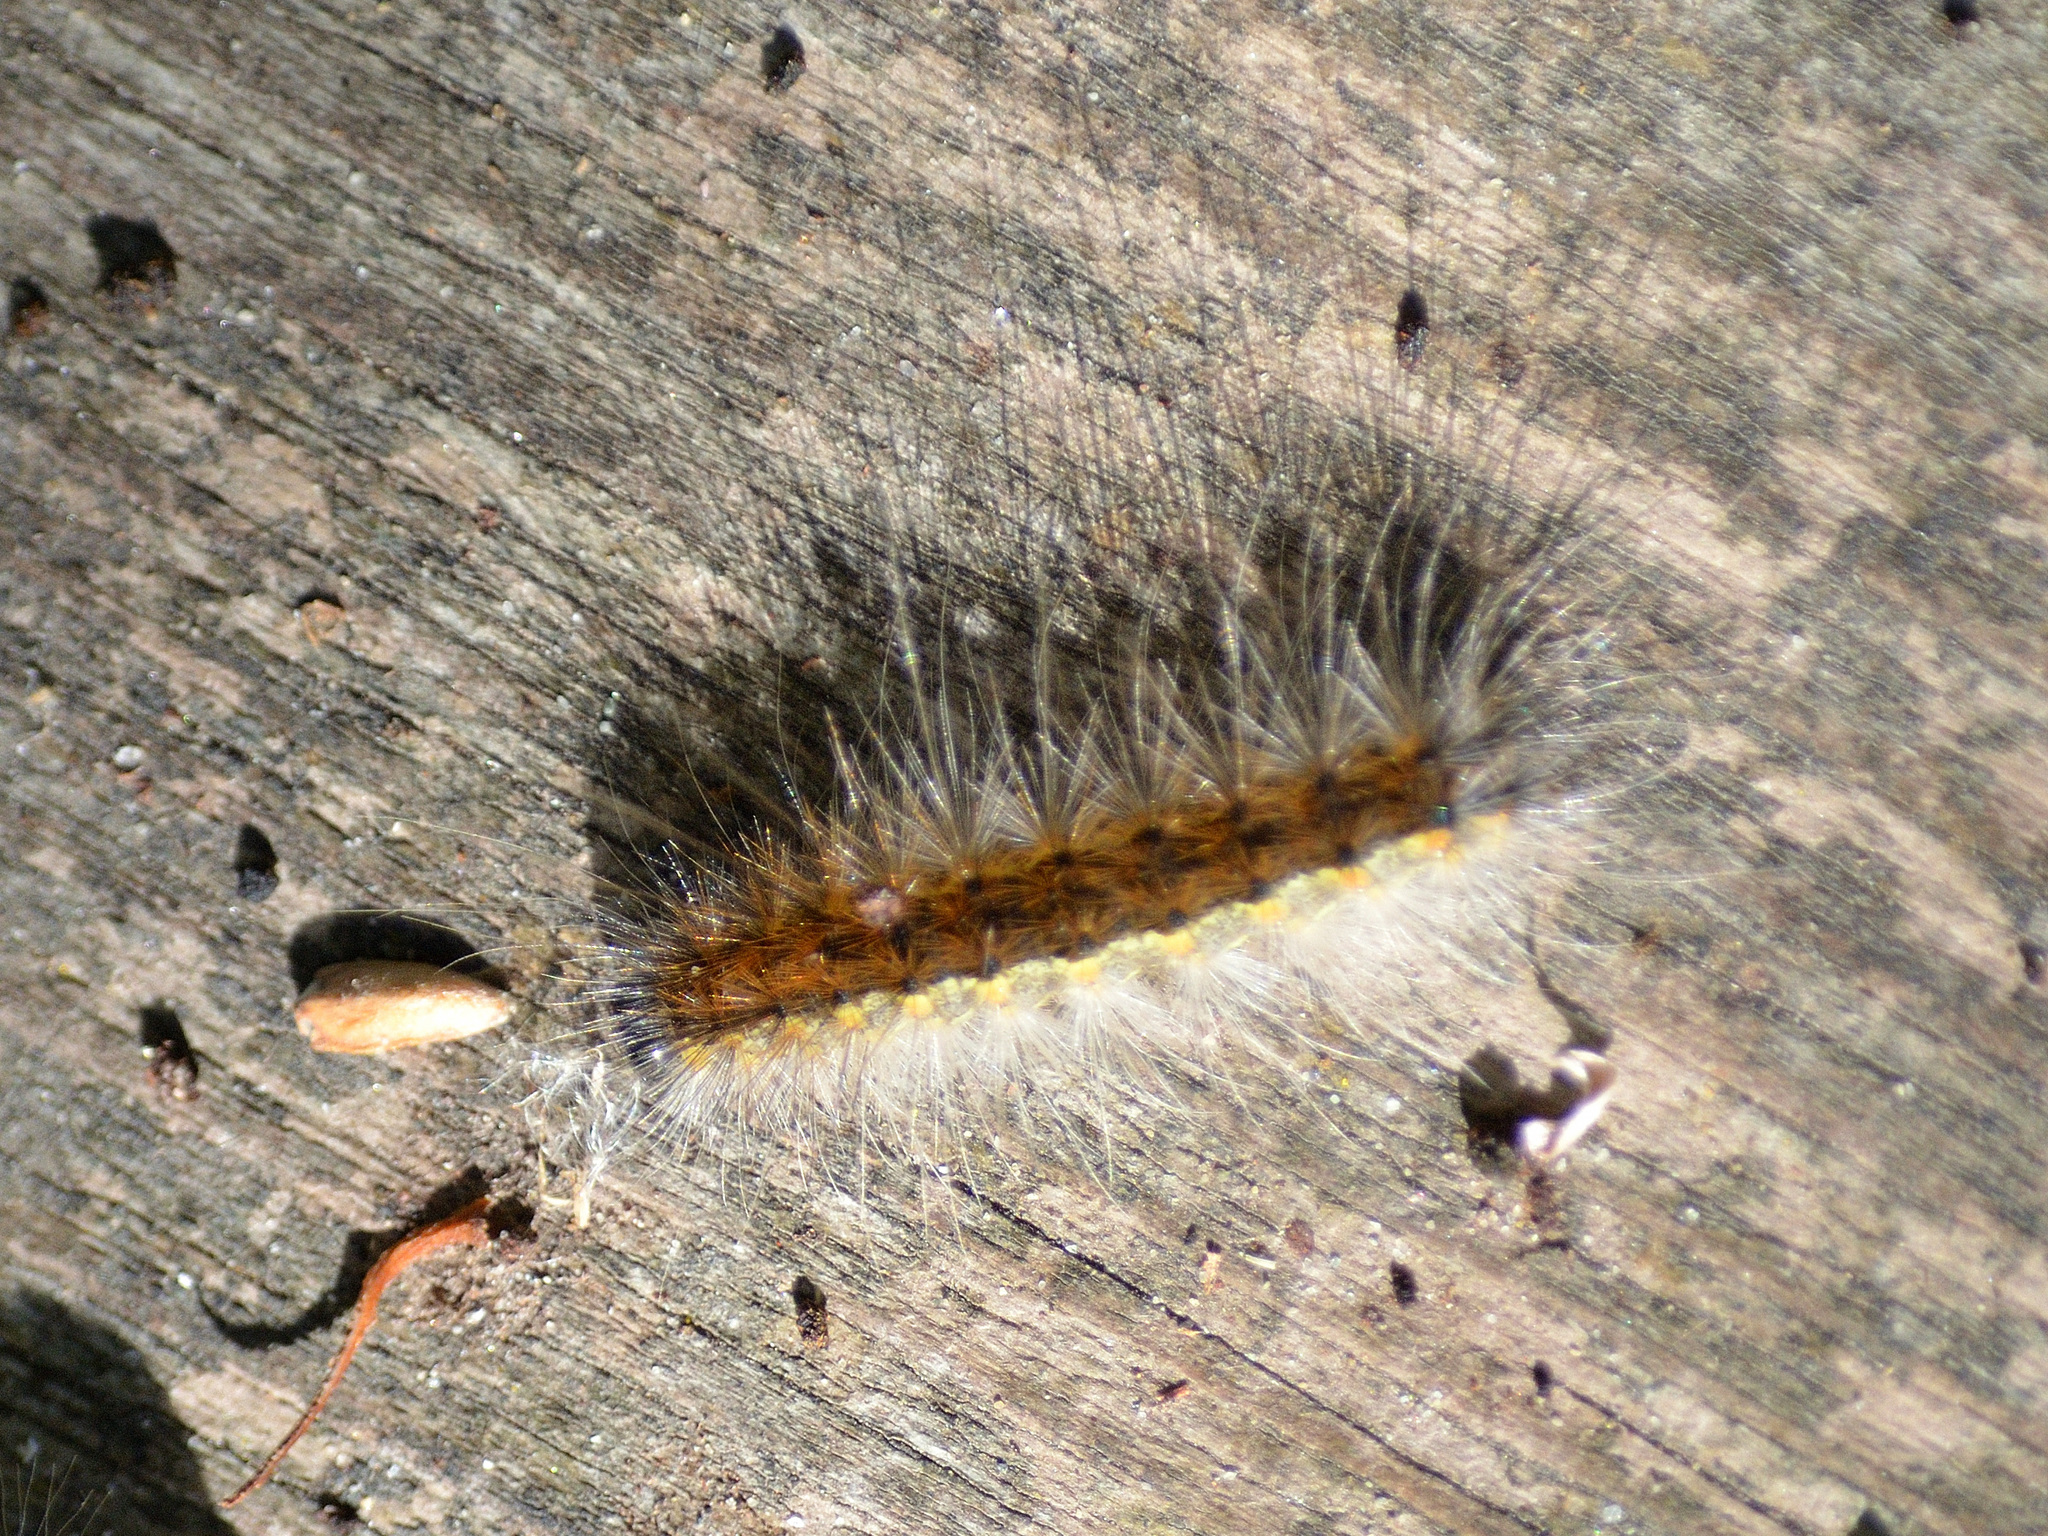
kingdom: Animalia
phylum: Arthropoda
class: Insecta
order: Lepidoptera
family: Erebidae
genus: Hyphantria
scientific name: Hyphantria cunea
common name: American white moth
